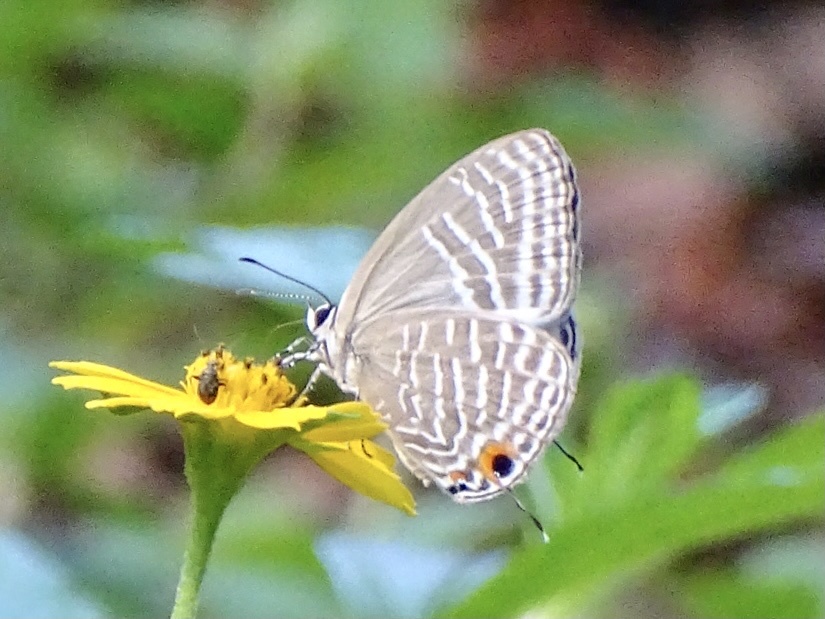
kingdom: Animalia
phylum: Arthropoda
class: Insecta
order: Lepidoptera
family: Lycaenidae
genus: Jamides
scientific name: Jamides alecto
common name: Metallic cerulean
